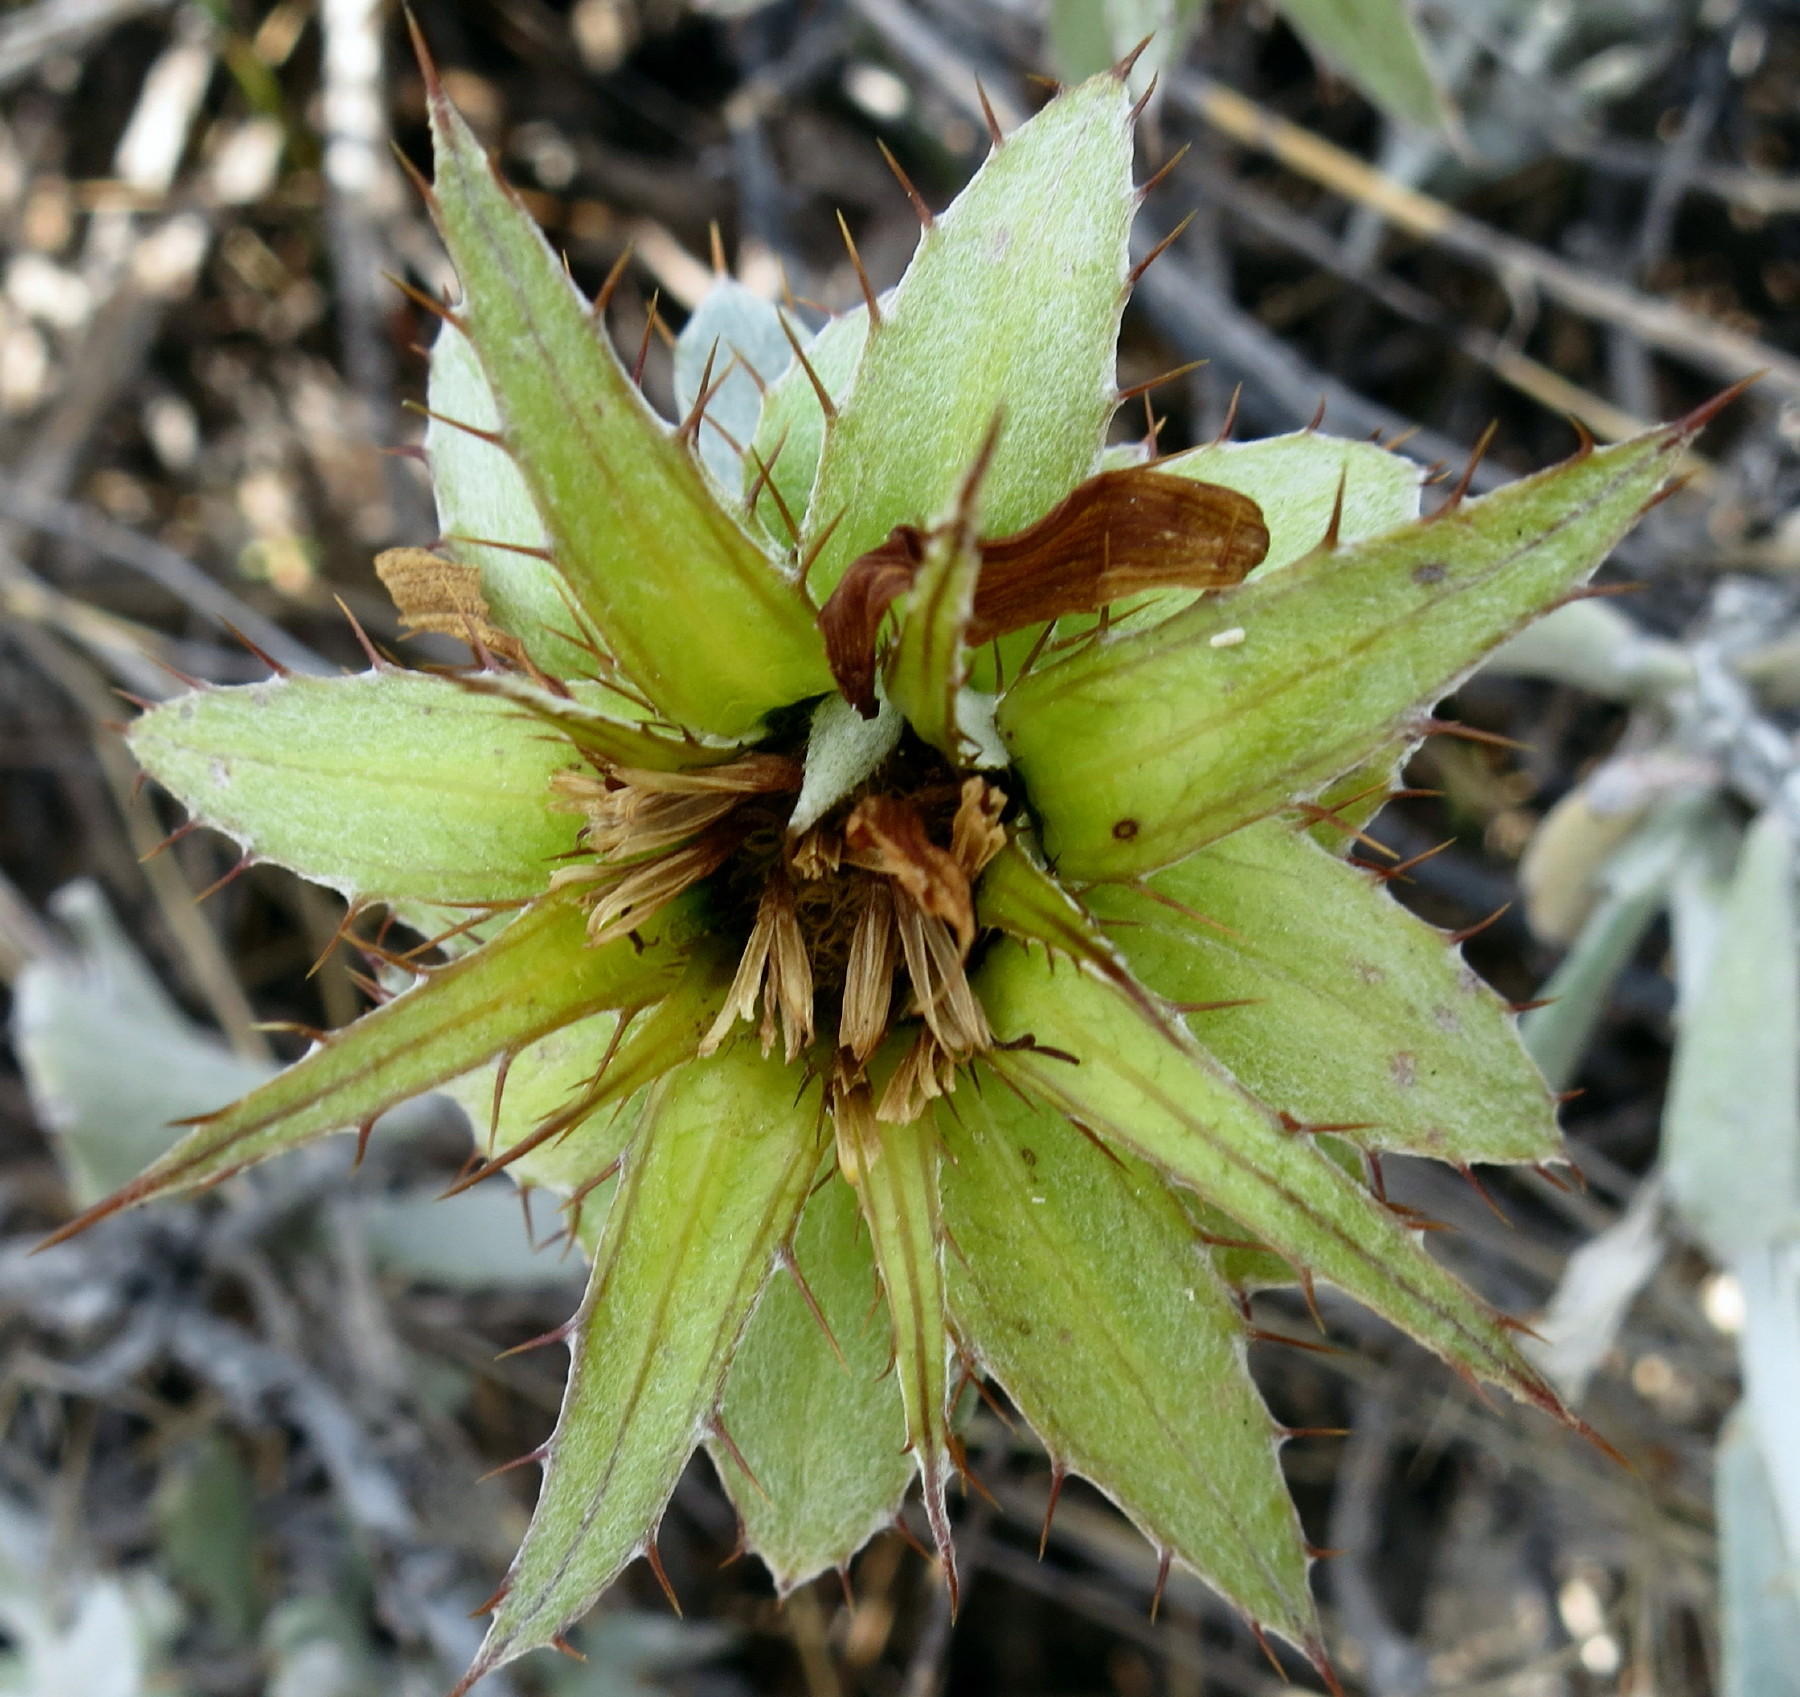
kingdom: Plantae
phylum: Tracheophyta
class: Magnoliopsida
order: Asterales
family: Asteraceae
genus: Berkheya
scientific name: Berkheya cuneata
